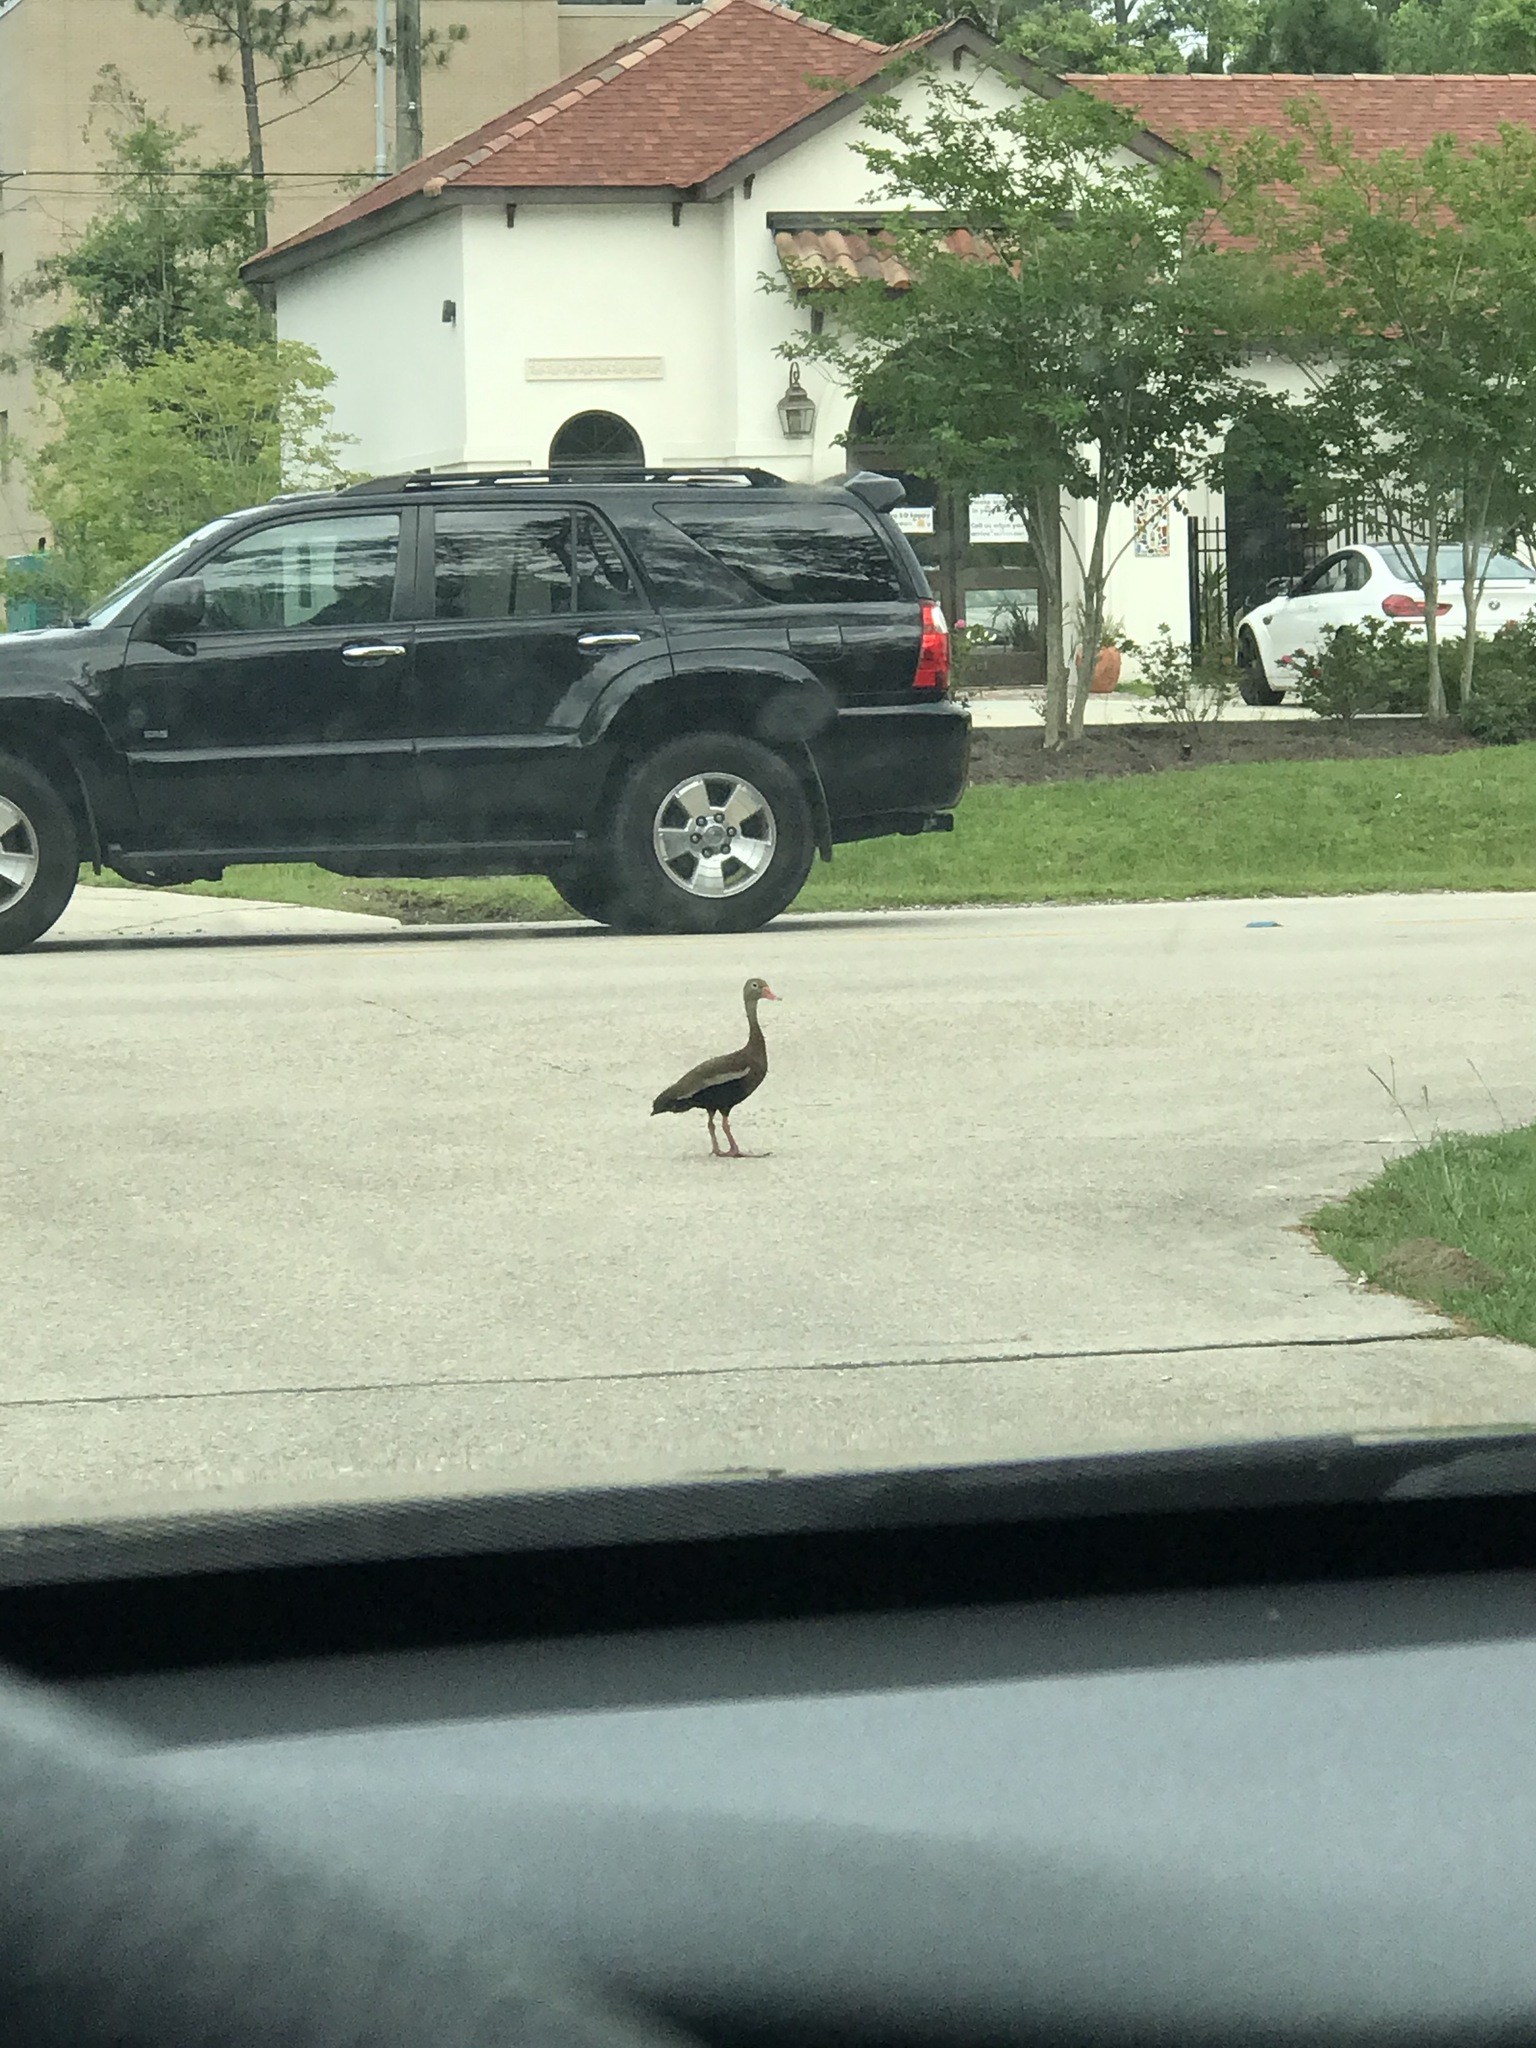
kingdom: Animalia
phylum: Chordata
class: Aves
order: Anseriformes
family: Anatidae
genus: Dendrocygna
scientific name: Dendrocygna autumnalis
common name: Black-bellied whistling duck
